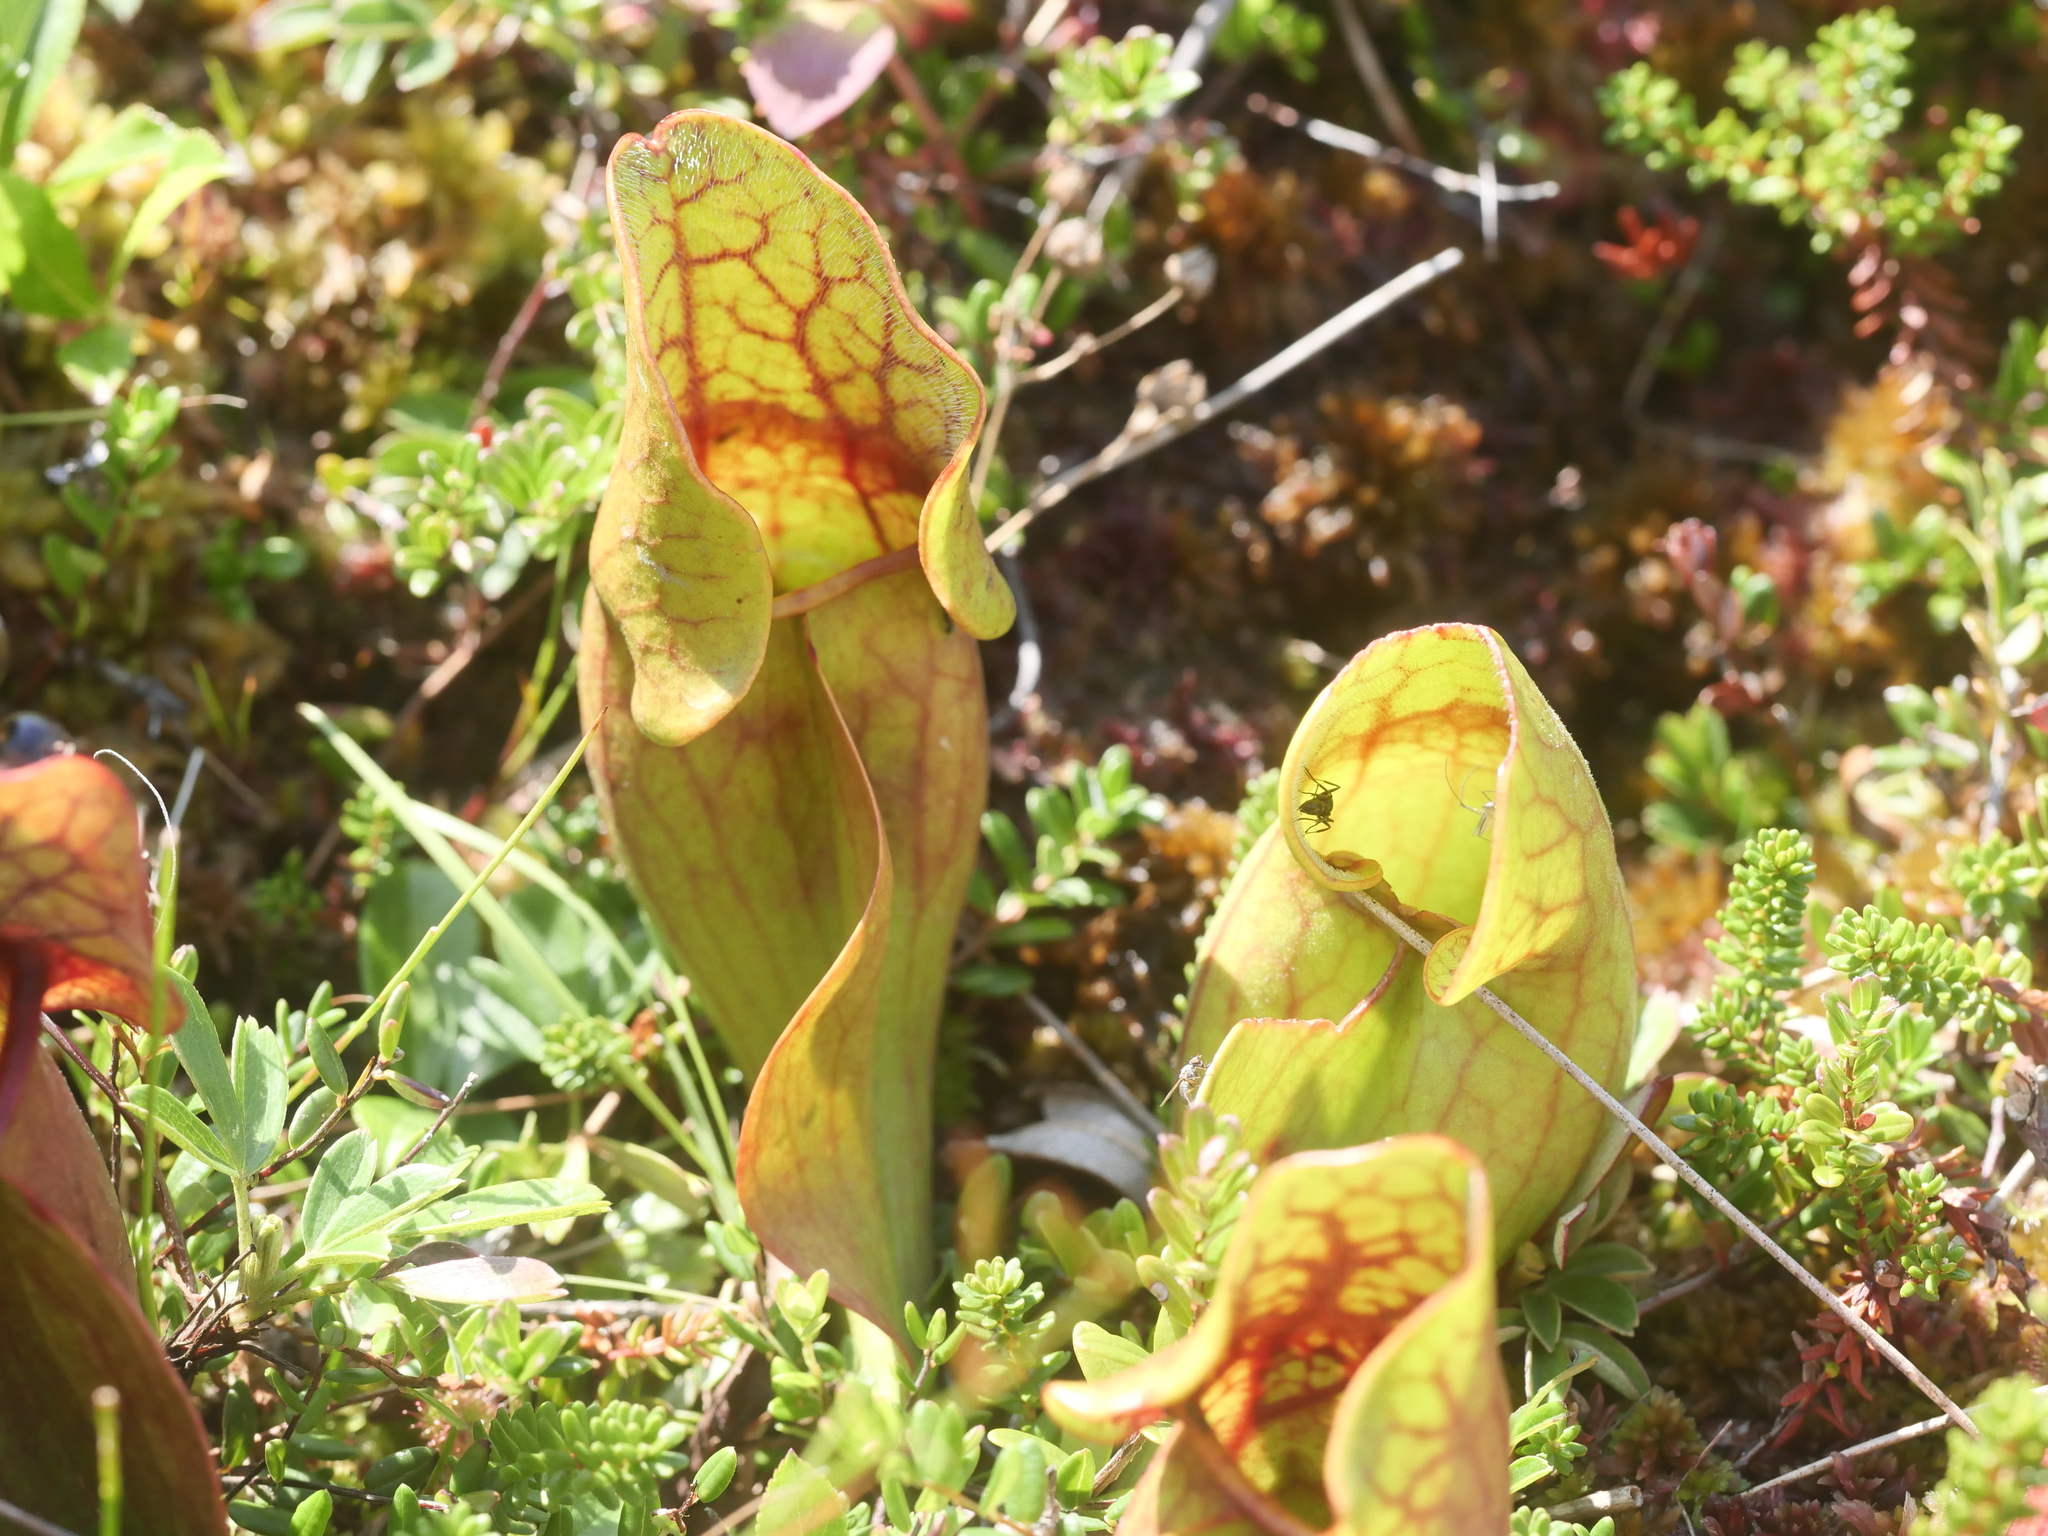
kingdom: Plantae
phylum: Tracheophyta
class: Magnoliopsida
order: Ericales
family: Sarraceniaceae
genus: Sarracenia
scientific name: Sarracenia purpurea
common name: Pitcherplant
